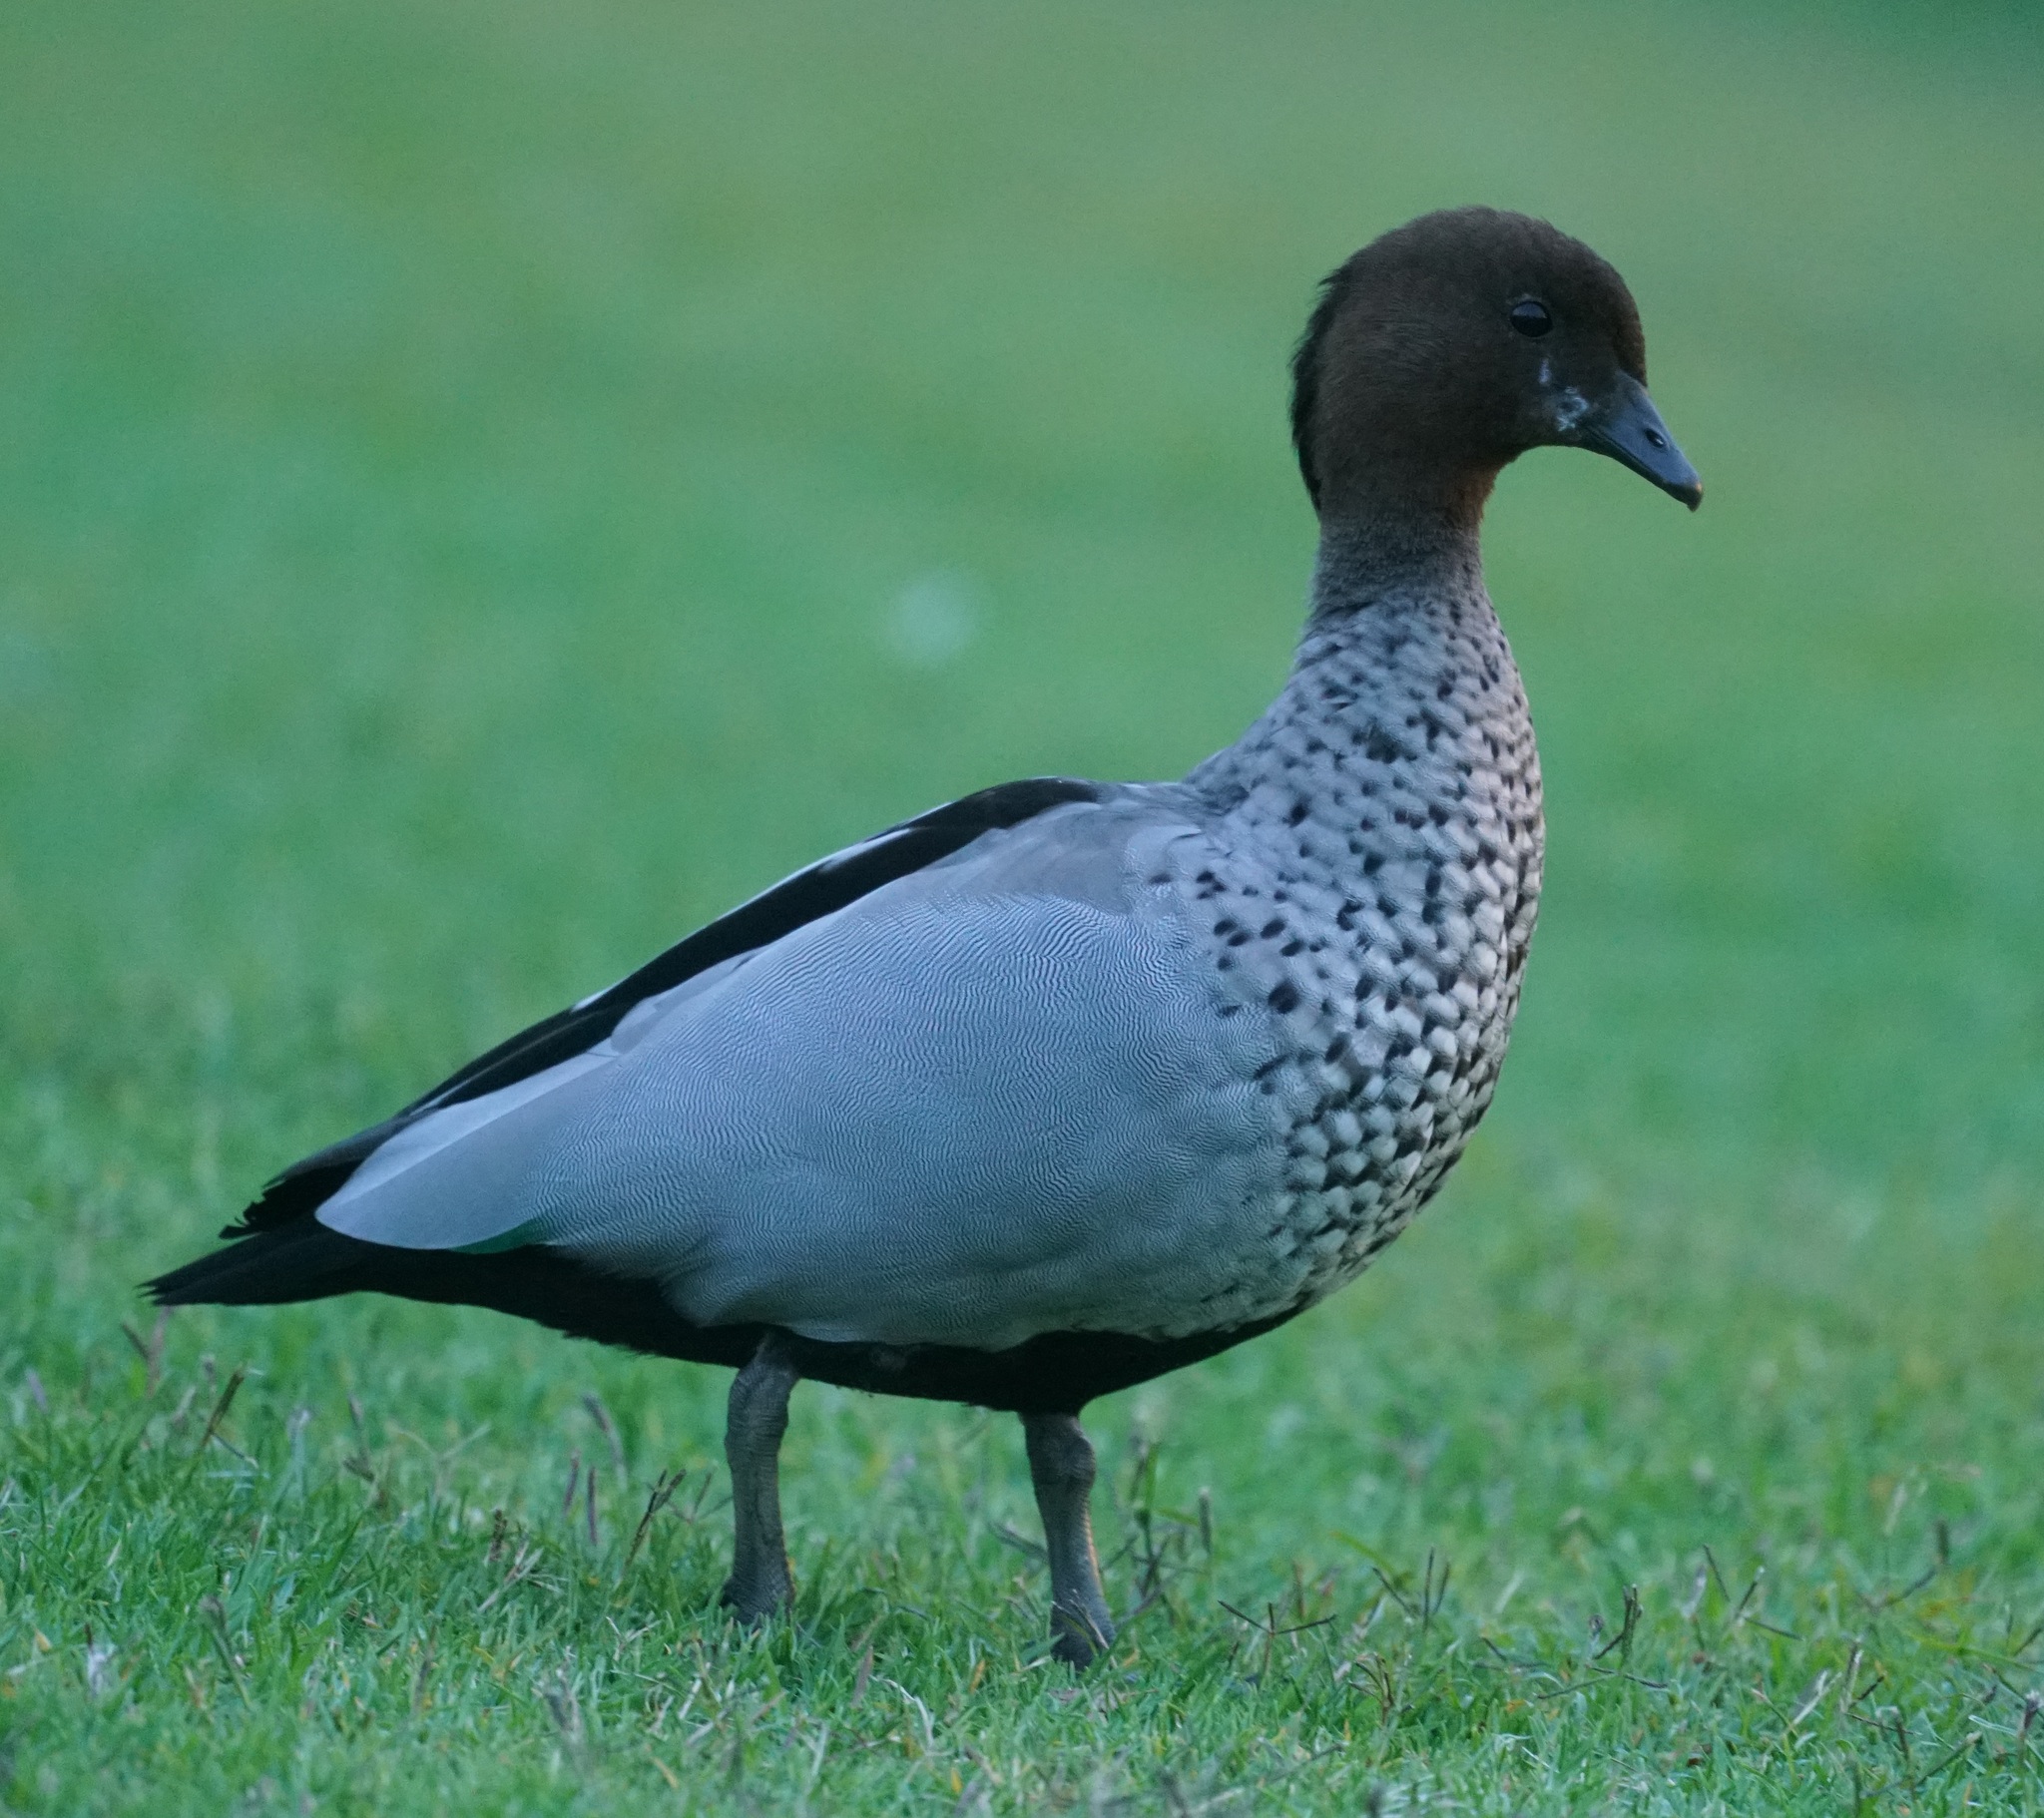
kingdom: Animalia
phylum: Chordata
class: Aves
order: Anseriformes
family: Anatidae
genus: Chenonetta
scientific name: Chenonetta jubata
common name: Maned duck
